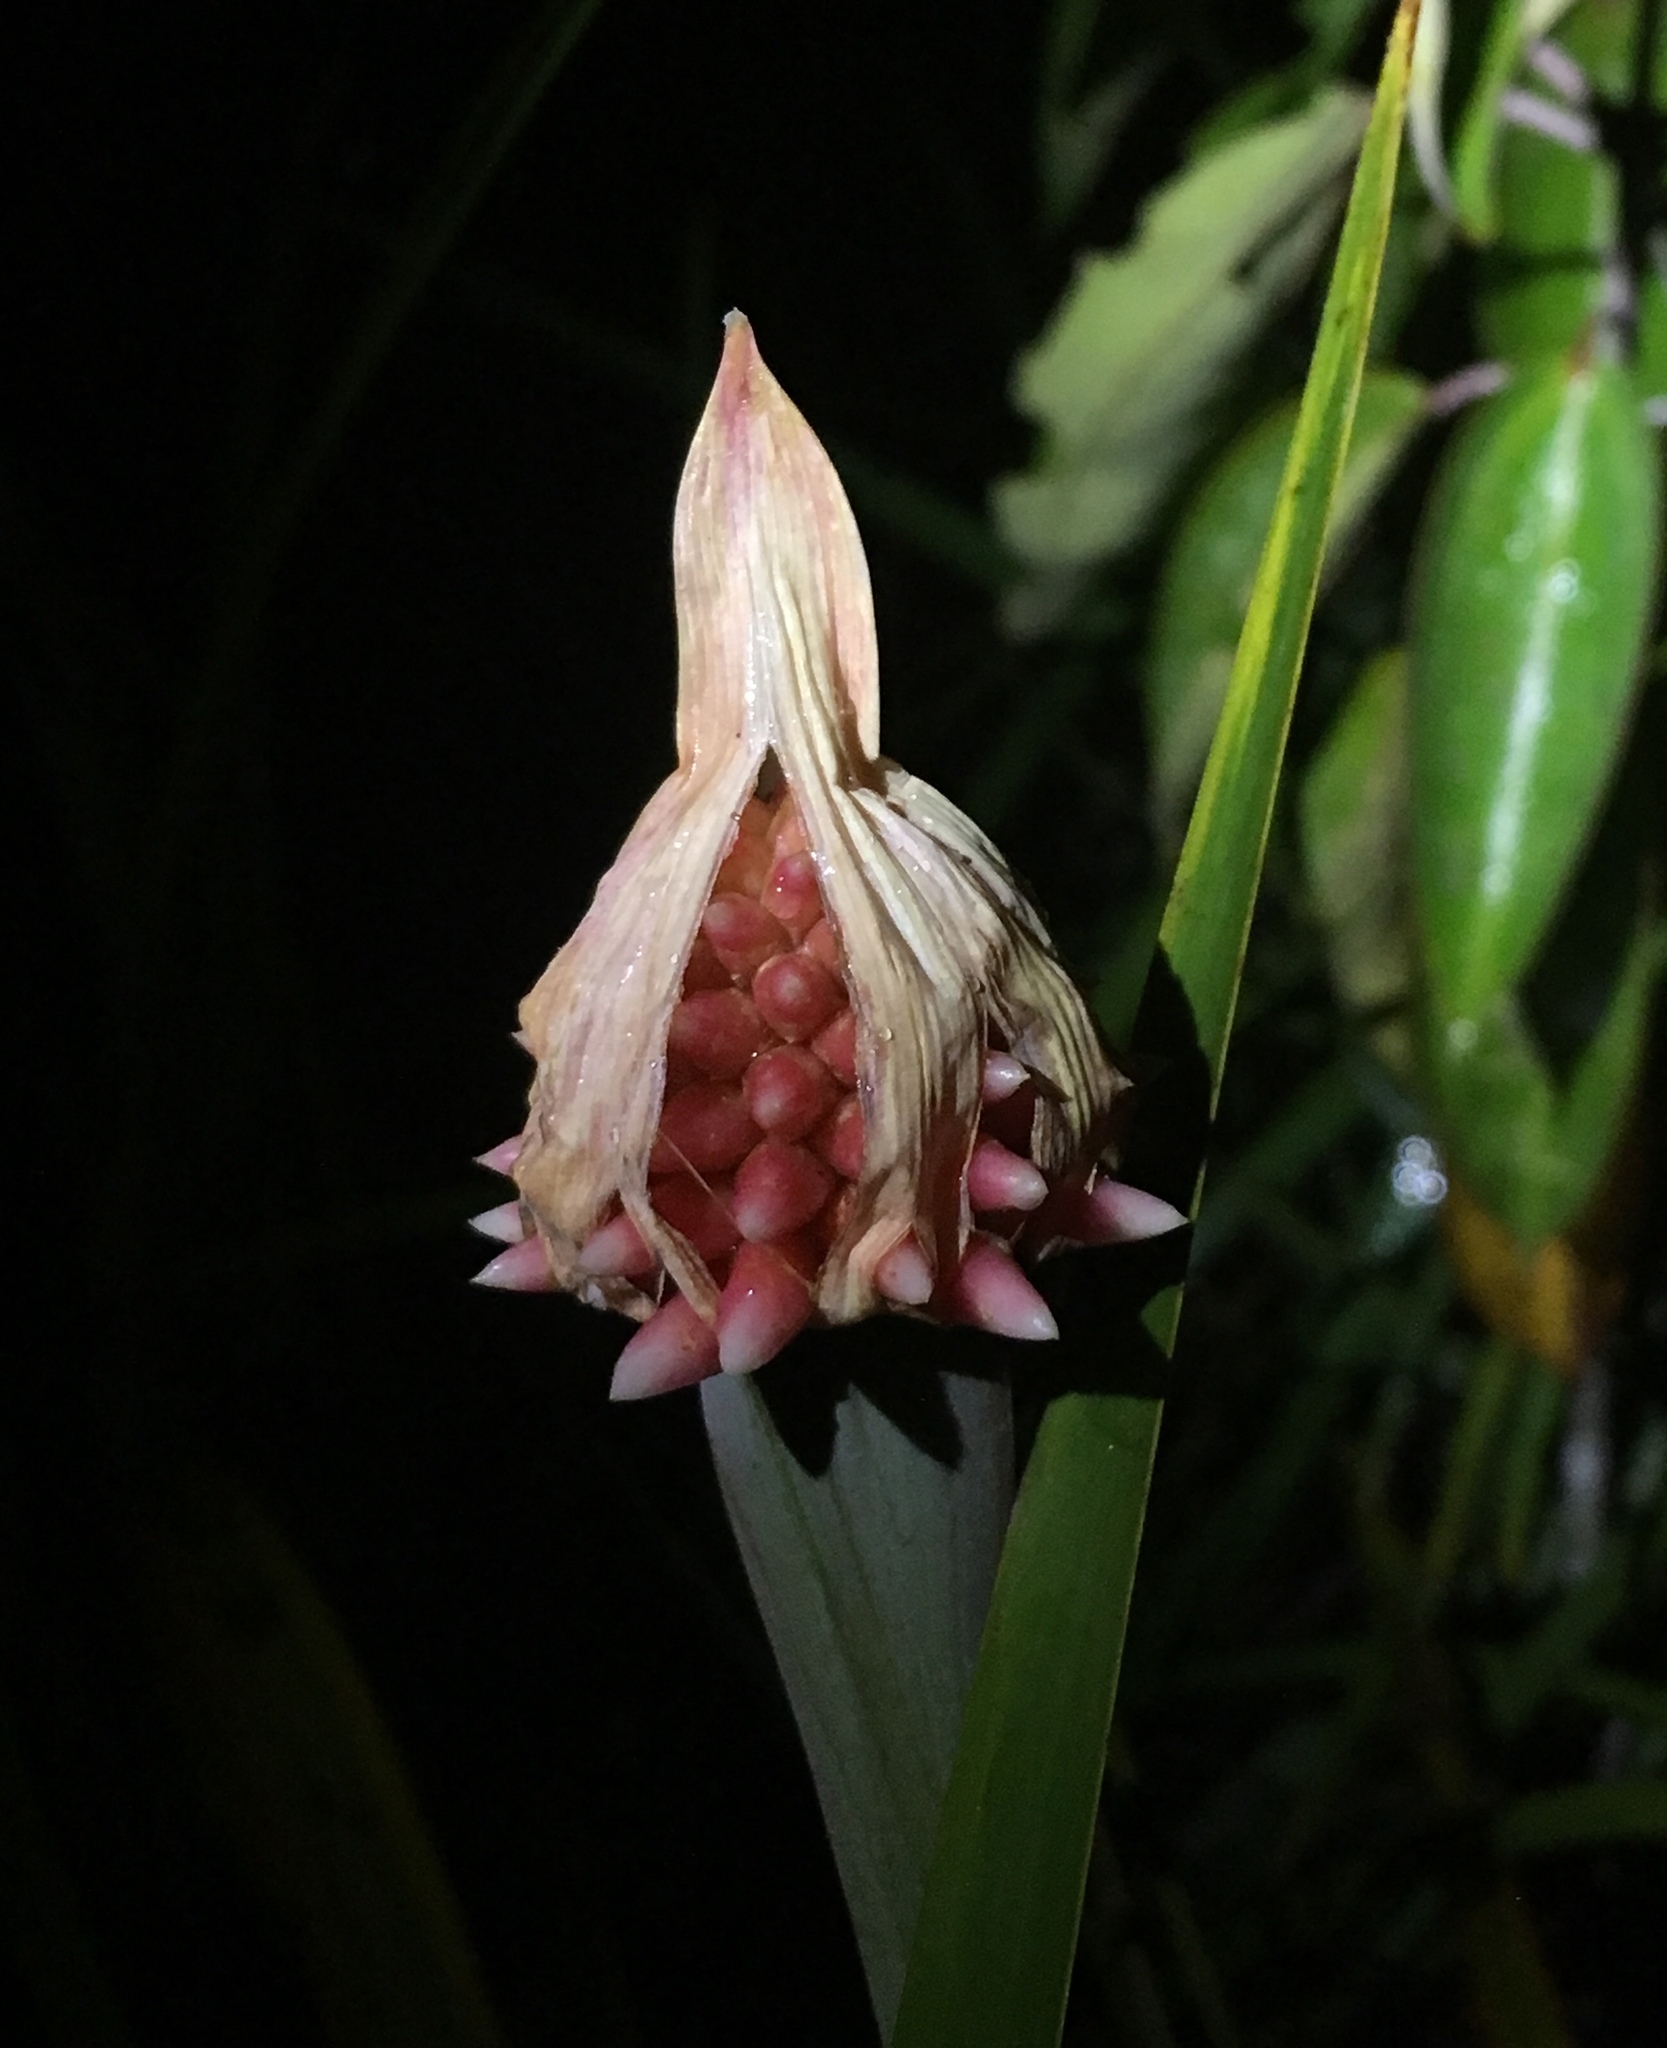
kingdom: Plantae
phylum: Tracheophyta
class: Liliopsida
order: Poales
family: Rapateaceae
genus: Guacamaya
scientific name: Guacamaya superba
